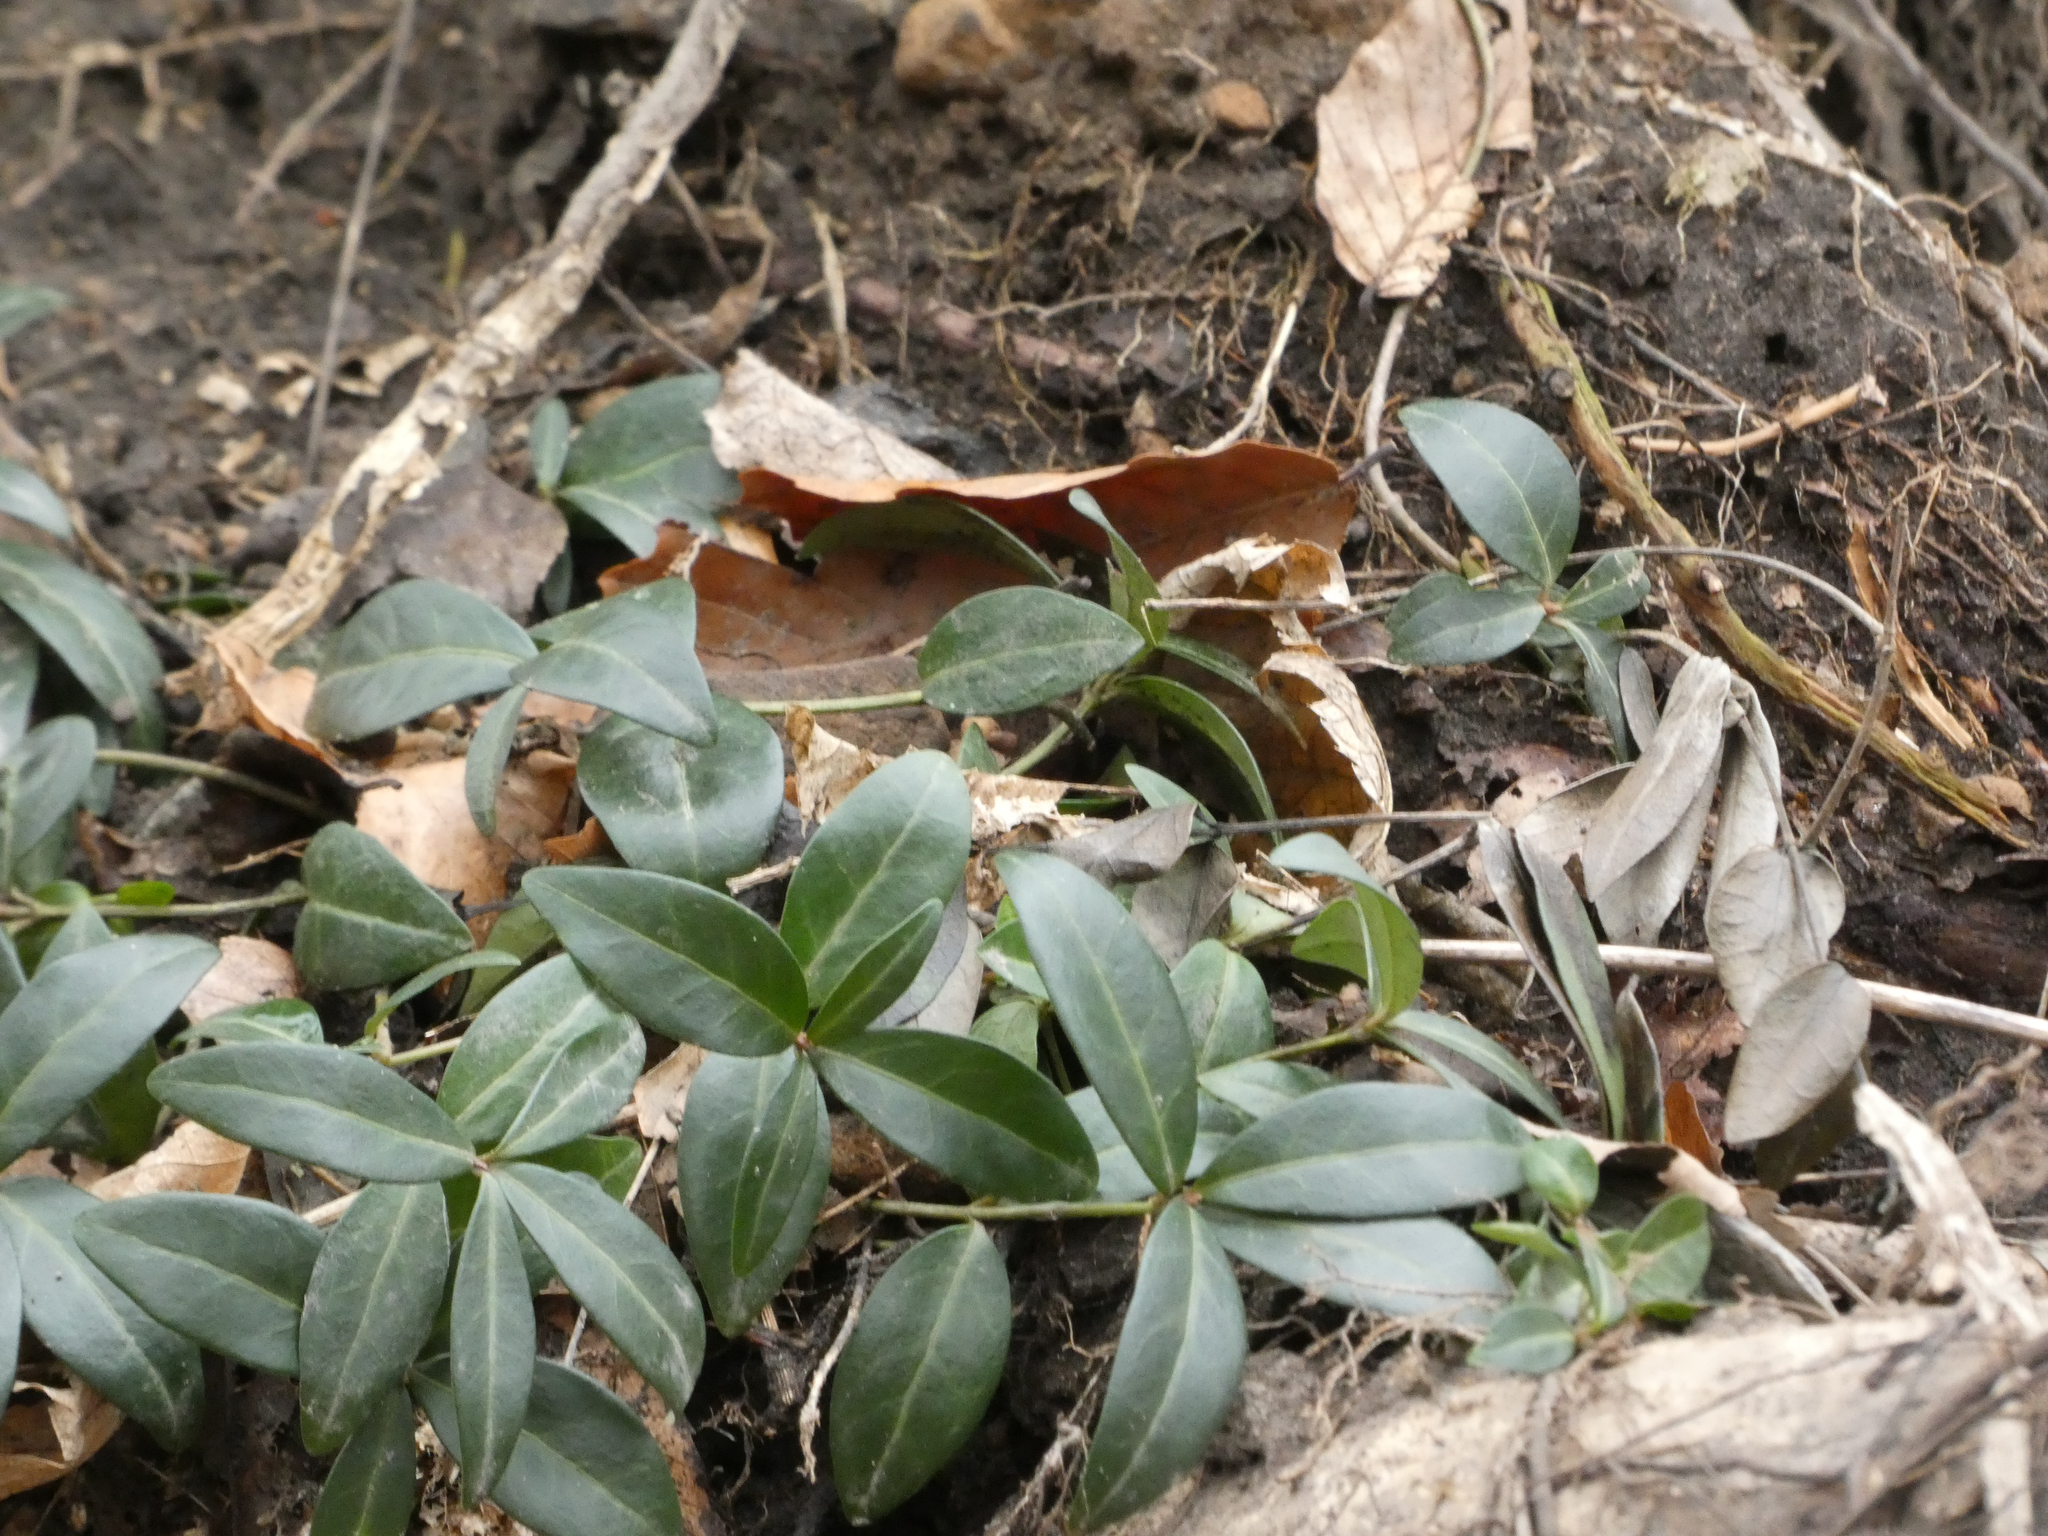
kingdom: Plantae
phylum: Tracheophyta
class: Magnoliopsida
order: Gentianales
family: Apocynaceae
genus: Vinca
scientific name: Vinca minor
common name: Lesser periwinkle
